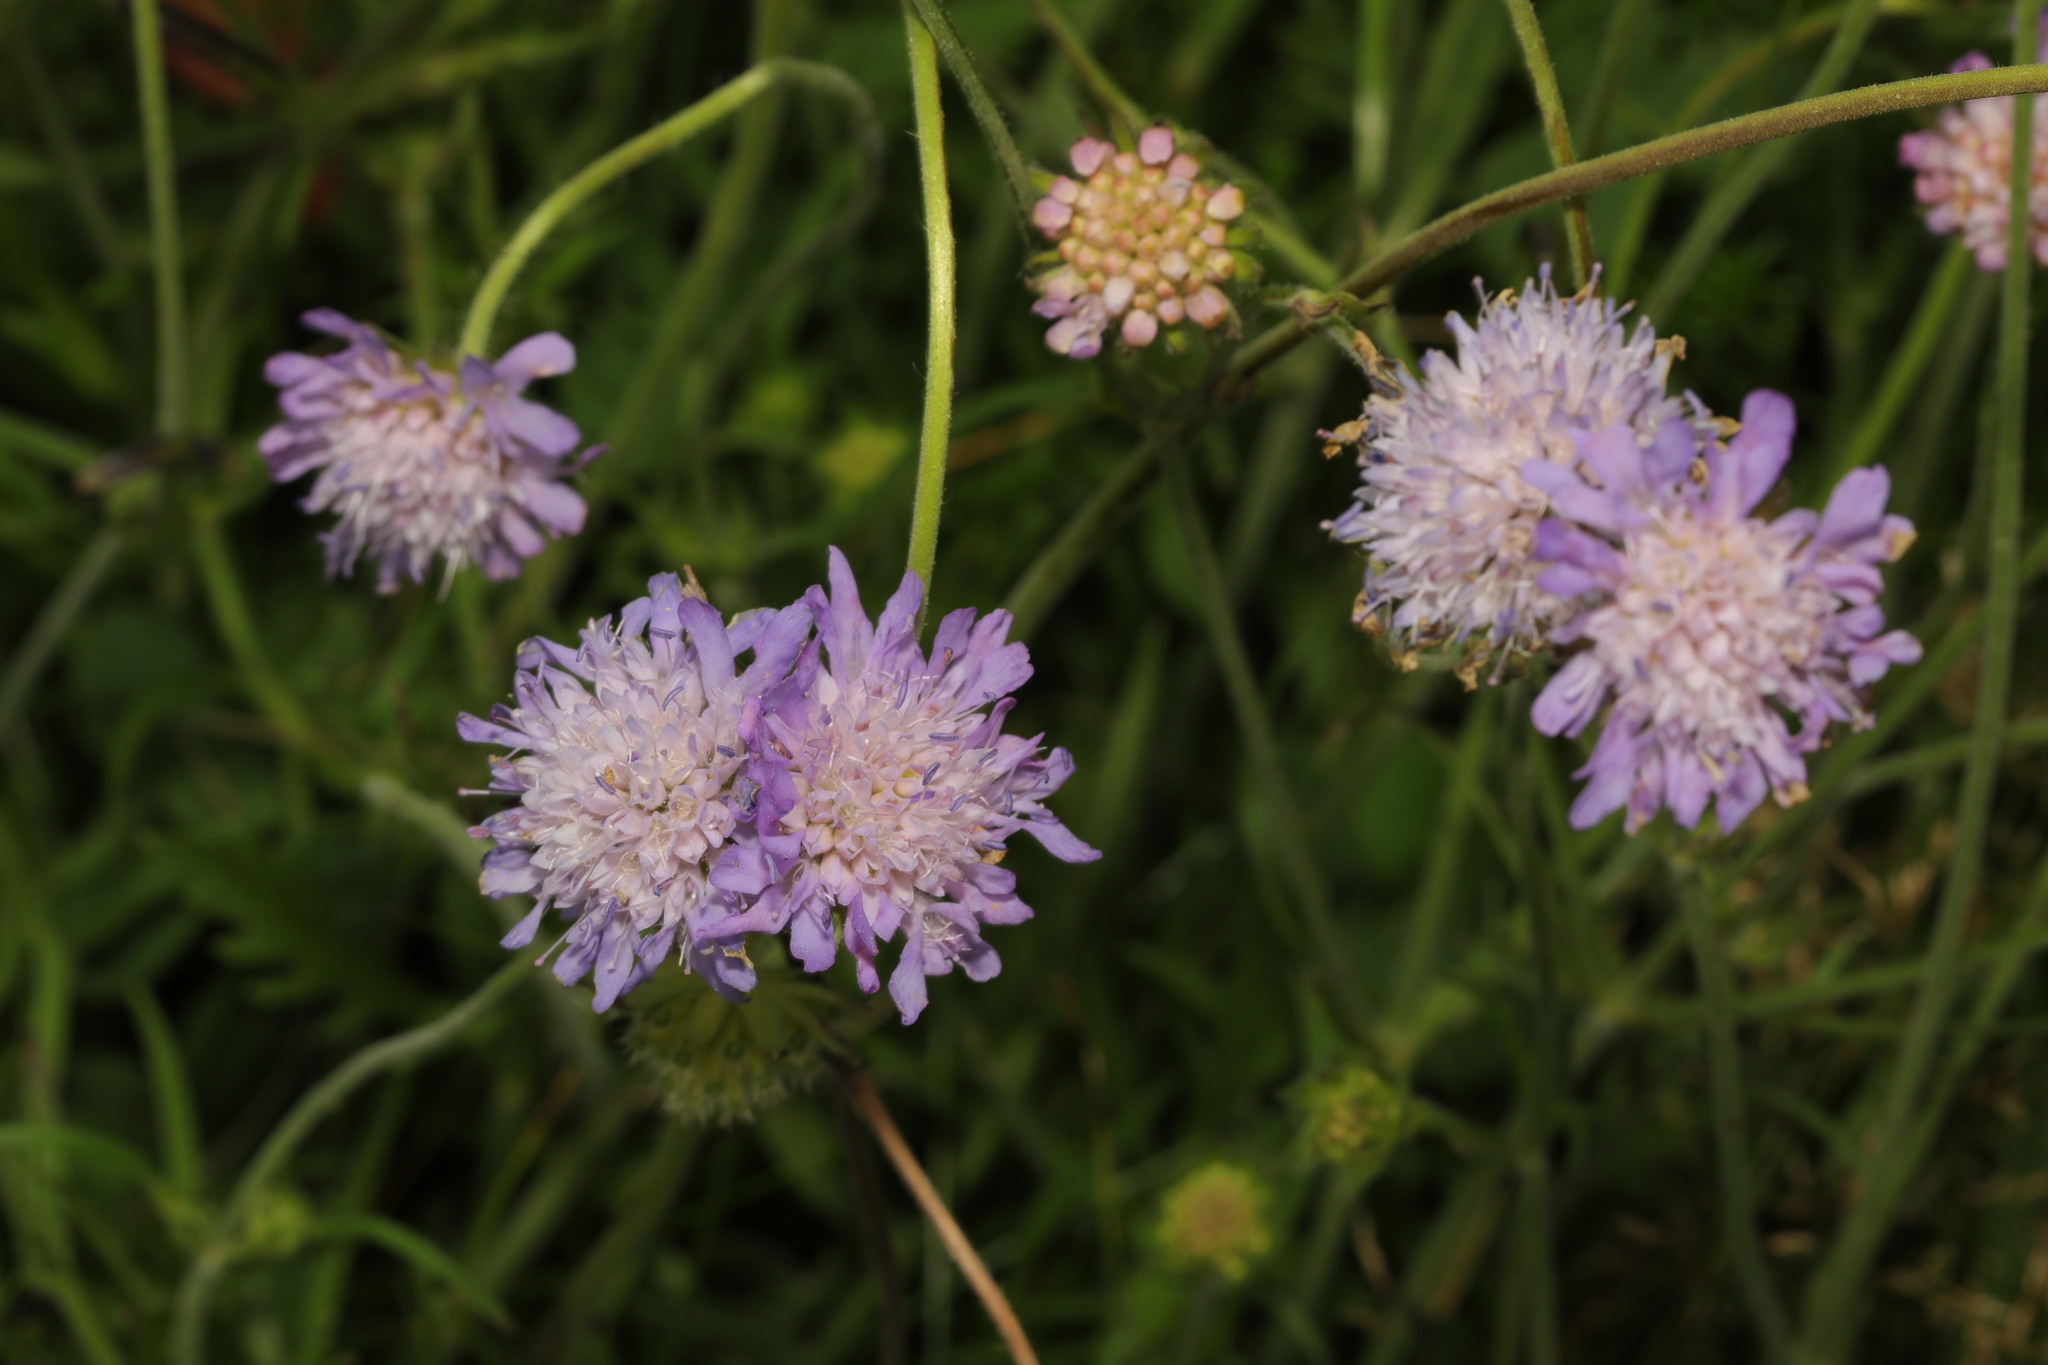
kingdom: Plantae
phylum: Tracheophyta
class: Magnoliopsida
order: Dipsacales
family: Caprifoliaceae
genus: Knautia
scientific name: Knautia arvensis
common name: Field scabiosa
